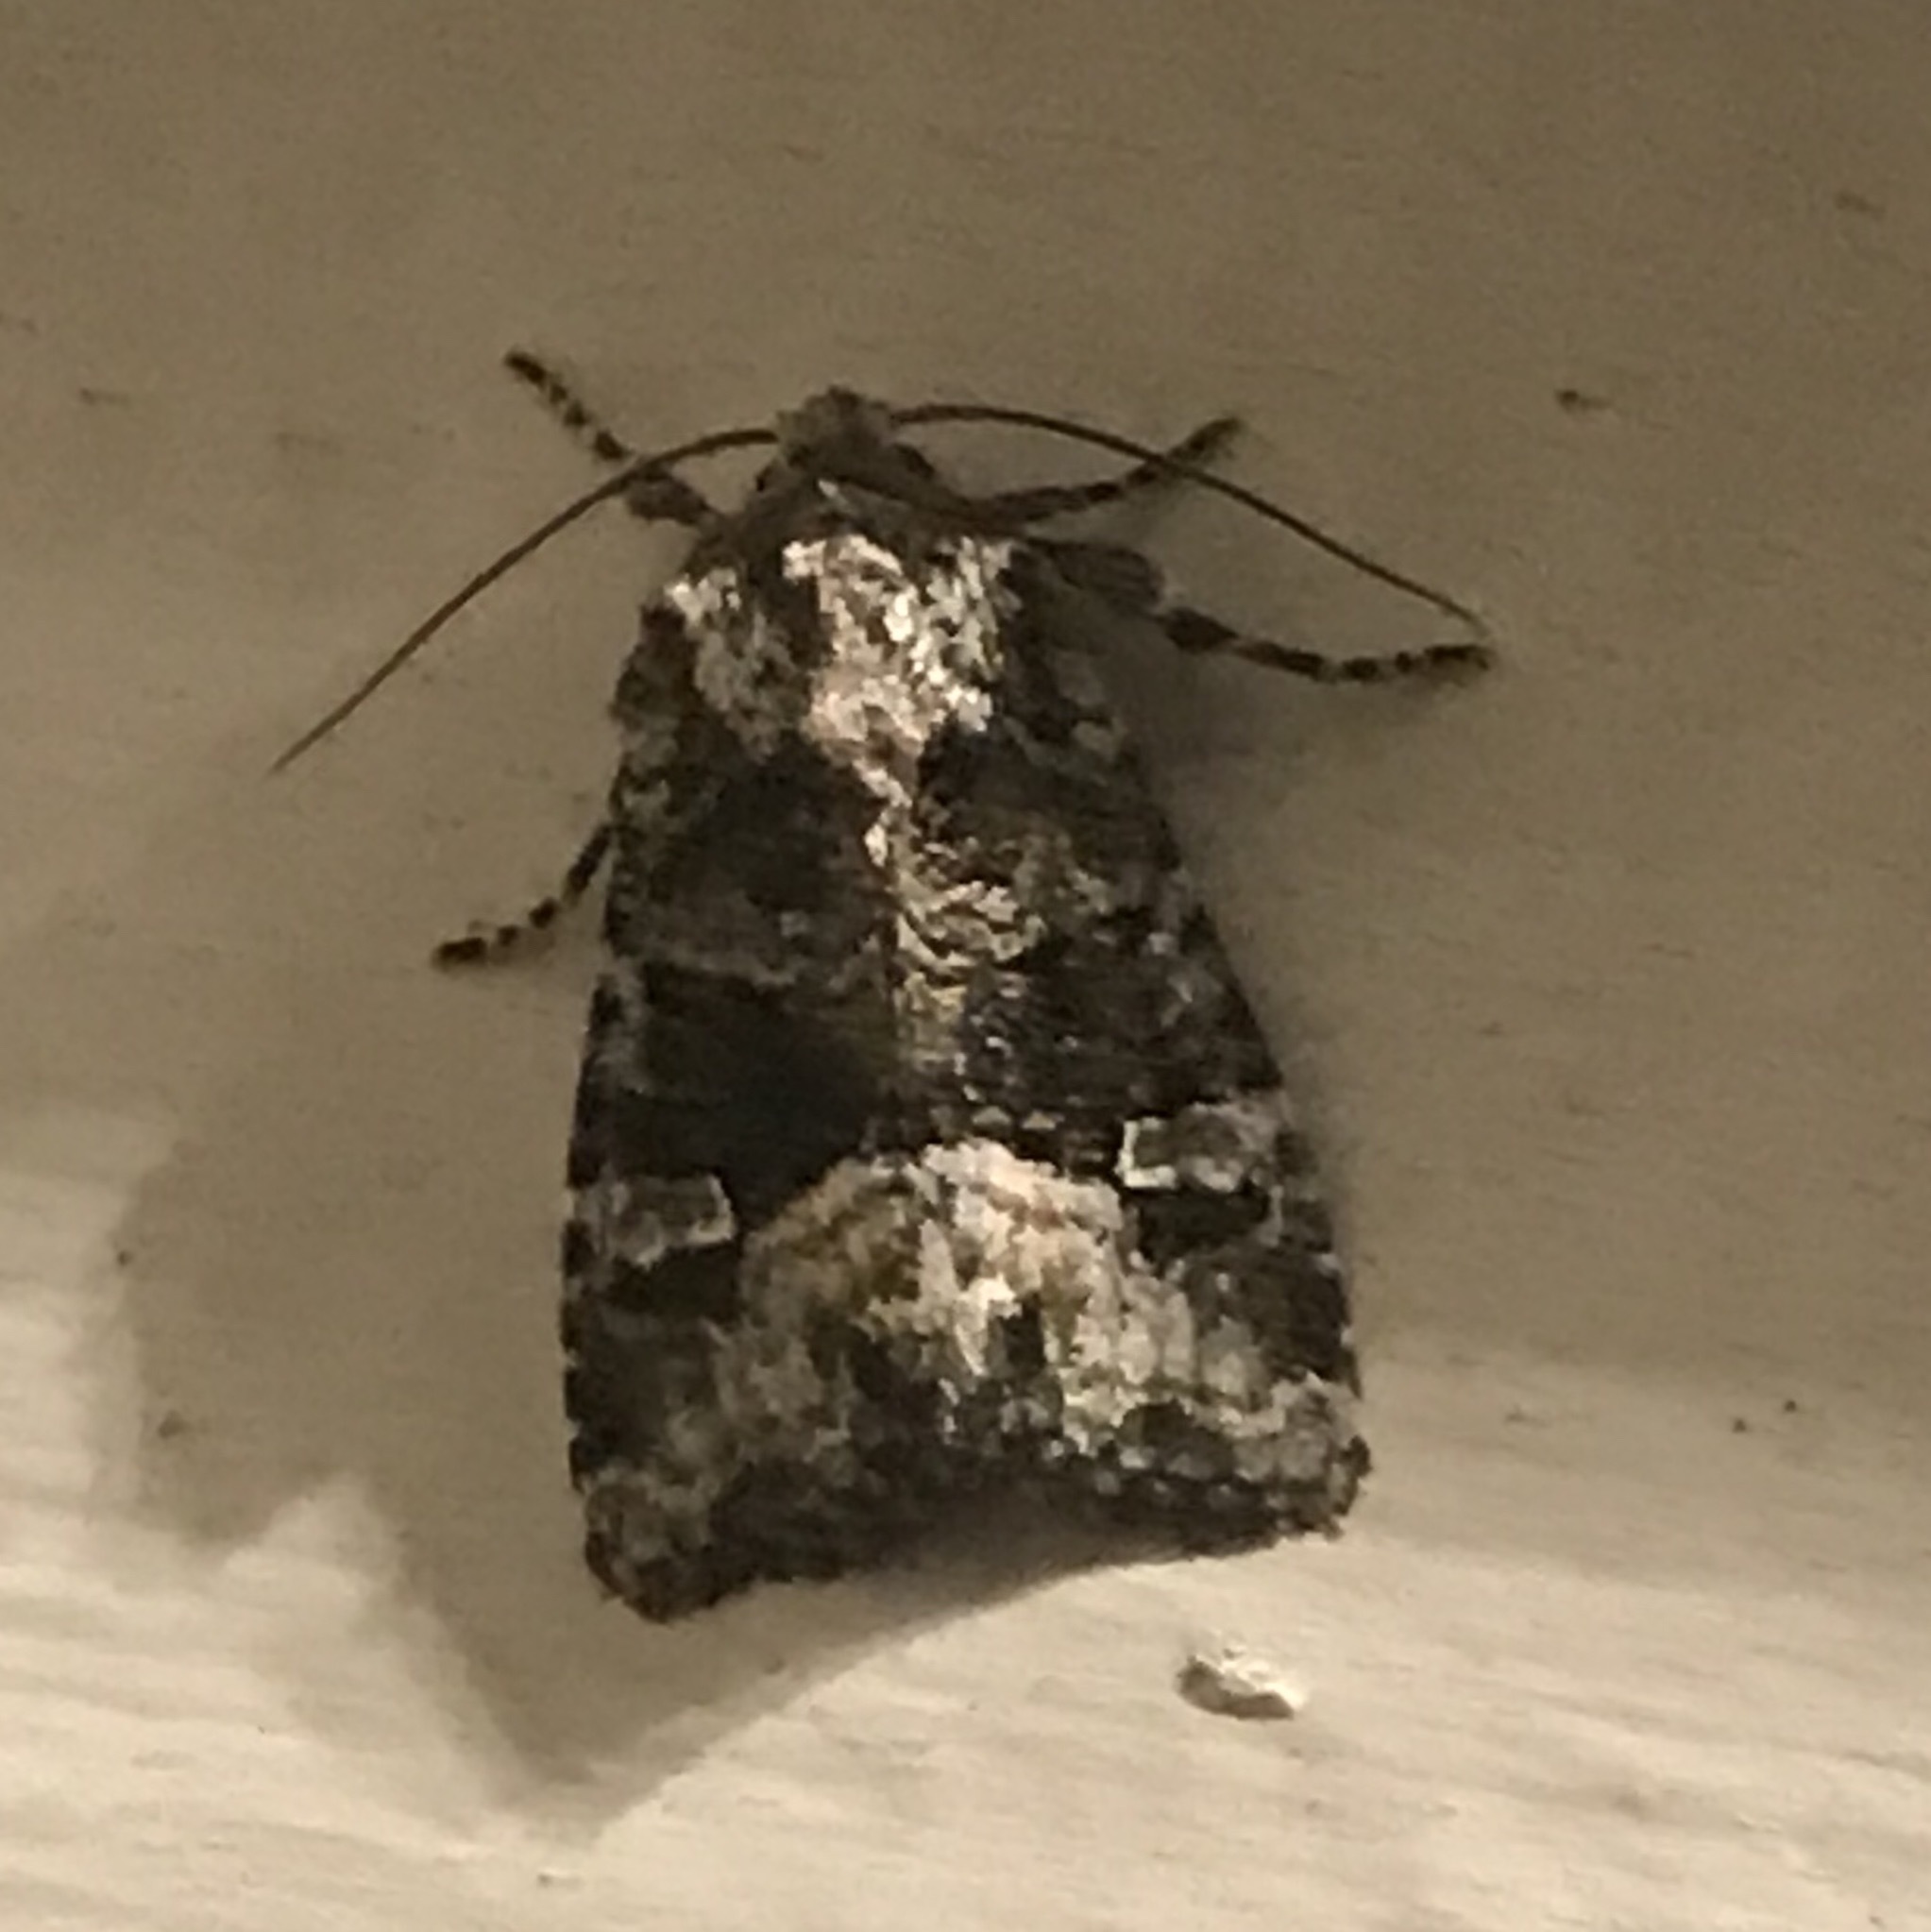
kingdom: Animalia
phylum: Arthropoda
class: Insecta
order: Lepidoptera
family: Noctuidae
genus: Lacinipolia
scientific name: Lacinipolia olivacea
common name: Olive arches moth
